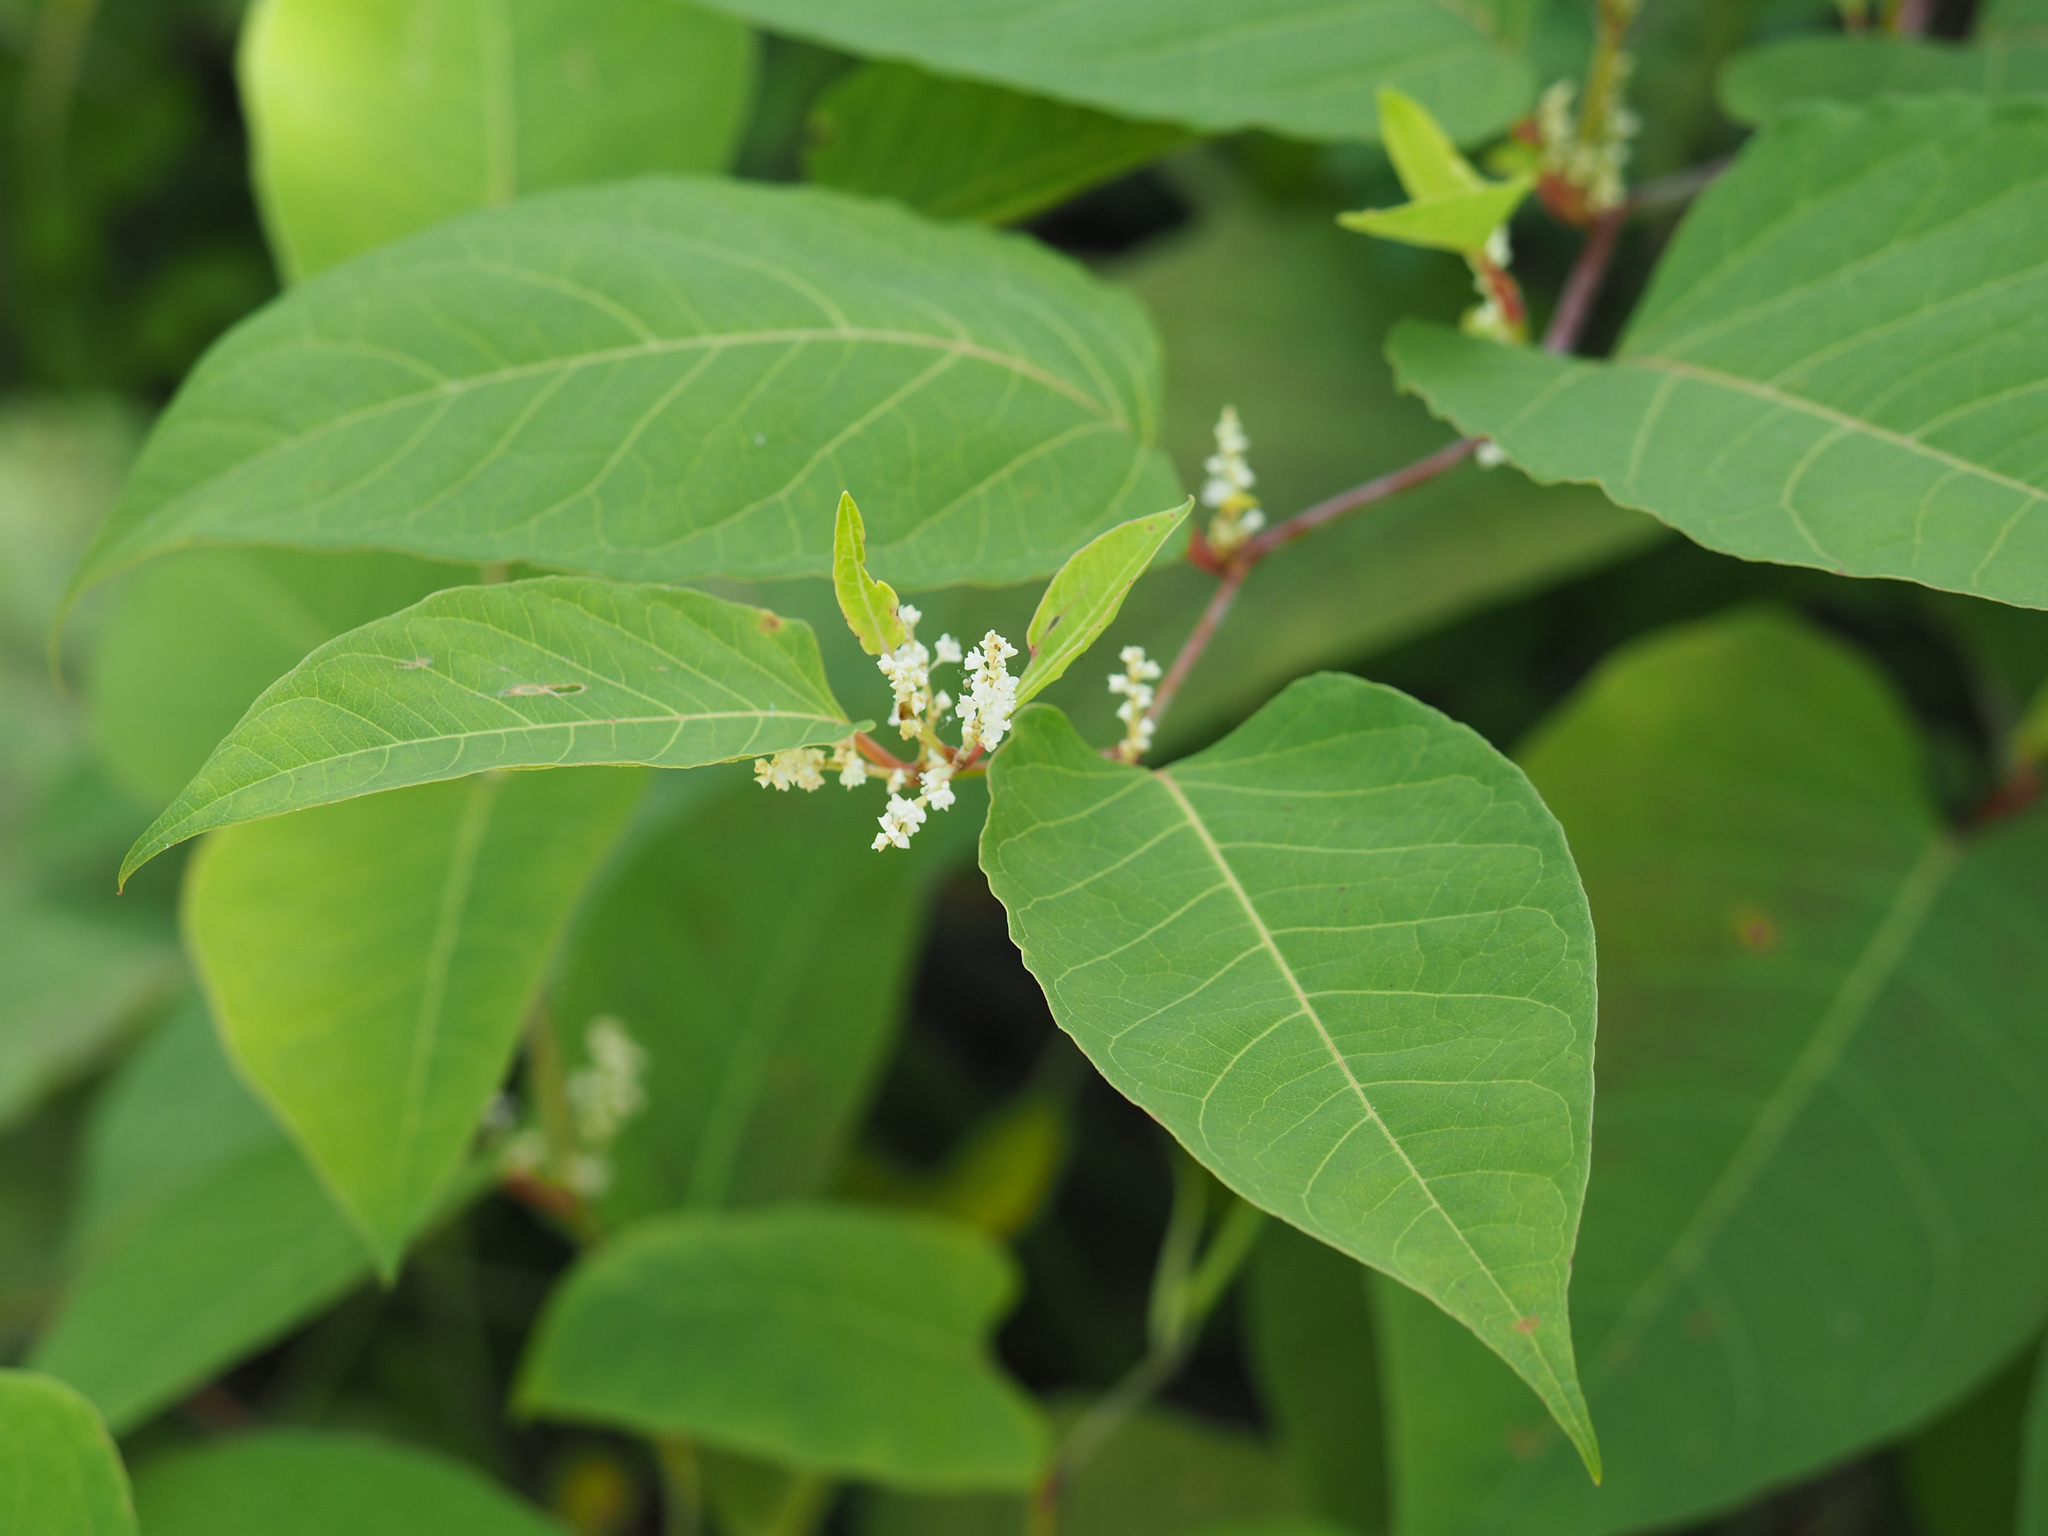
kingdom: Plantae
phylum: Tracheophyta
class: Magnoliopsida
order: Caryophyllales
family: Polygonaceae
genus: Reynoutria
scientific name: Reynoutria japonica
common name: Japanese knotweed
